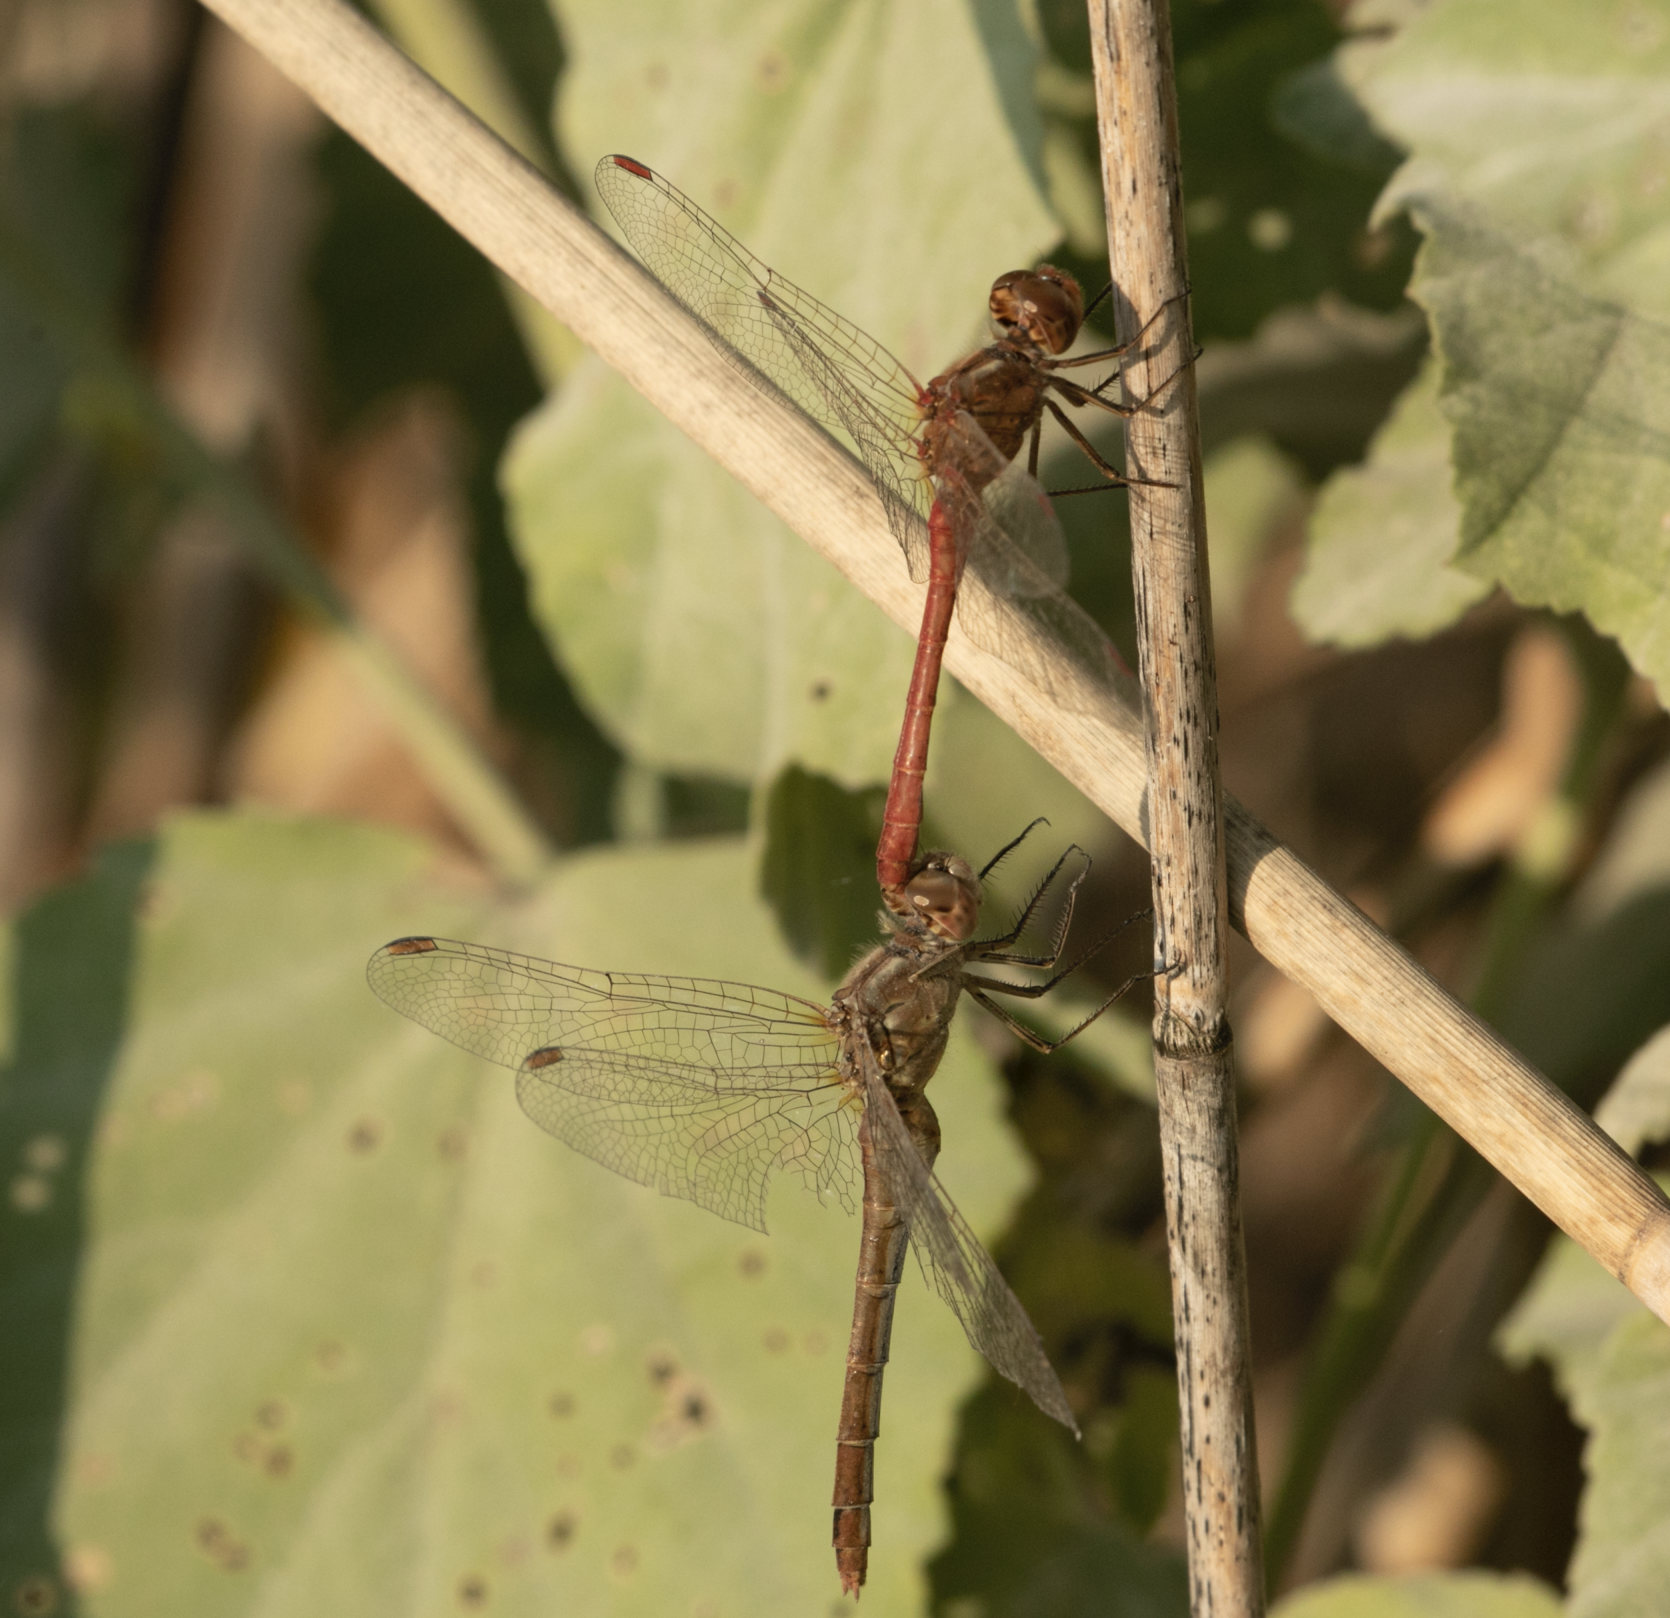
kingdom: Animalia
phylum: Arthropoda
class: Insecta
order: Odonata
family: Libellulidae
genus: Sympetrum
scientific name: Sympetrum meridionale
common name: Southern darter
